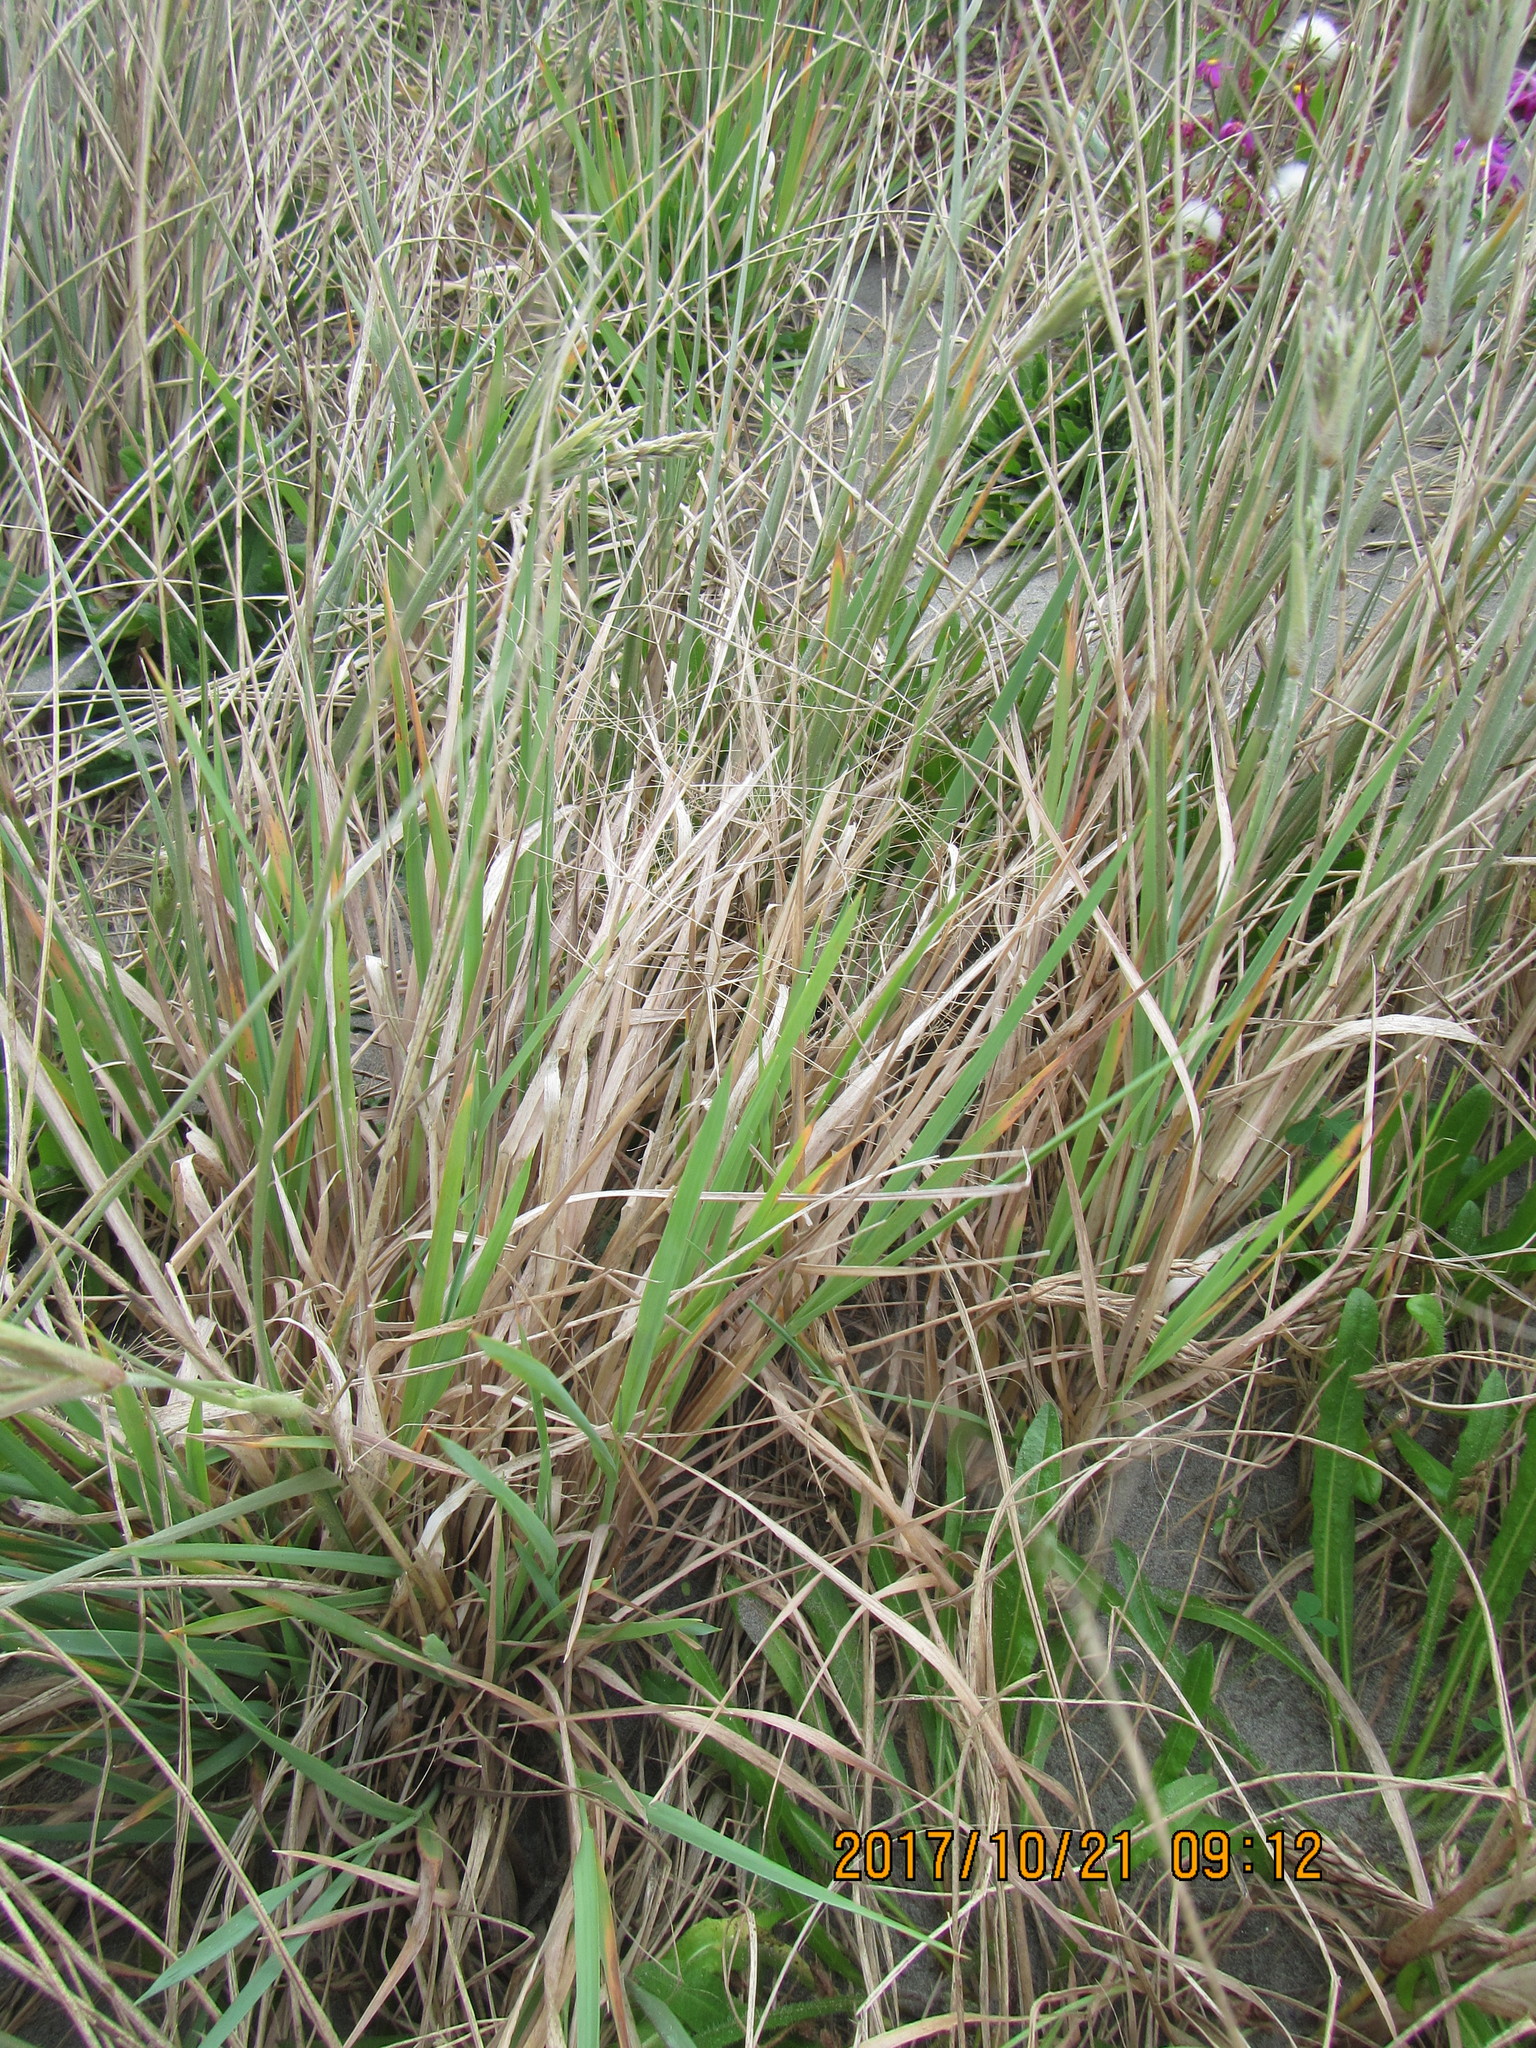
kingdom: Plantae
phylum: Tracheophyta
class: Liliopsida
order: Poales
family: Poaceae
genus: Lachnagrostis
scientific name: Lachnagrostis billardierei
